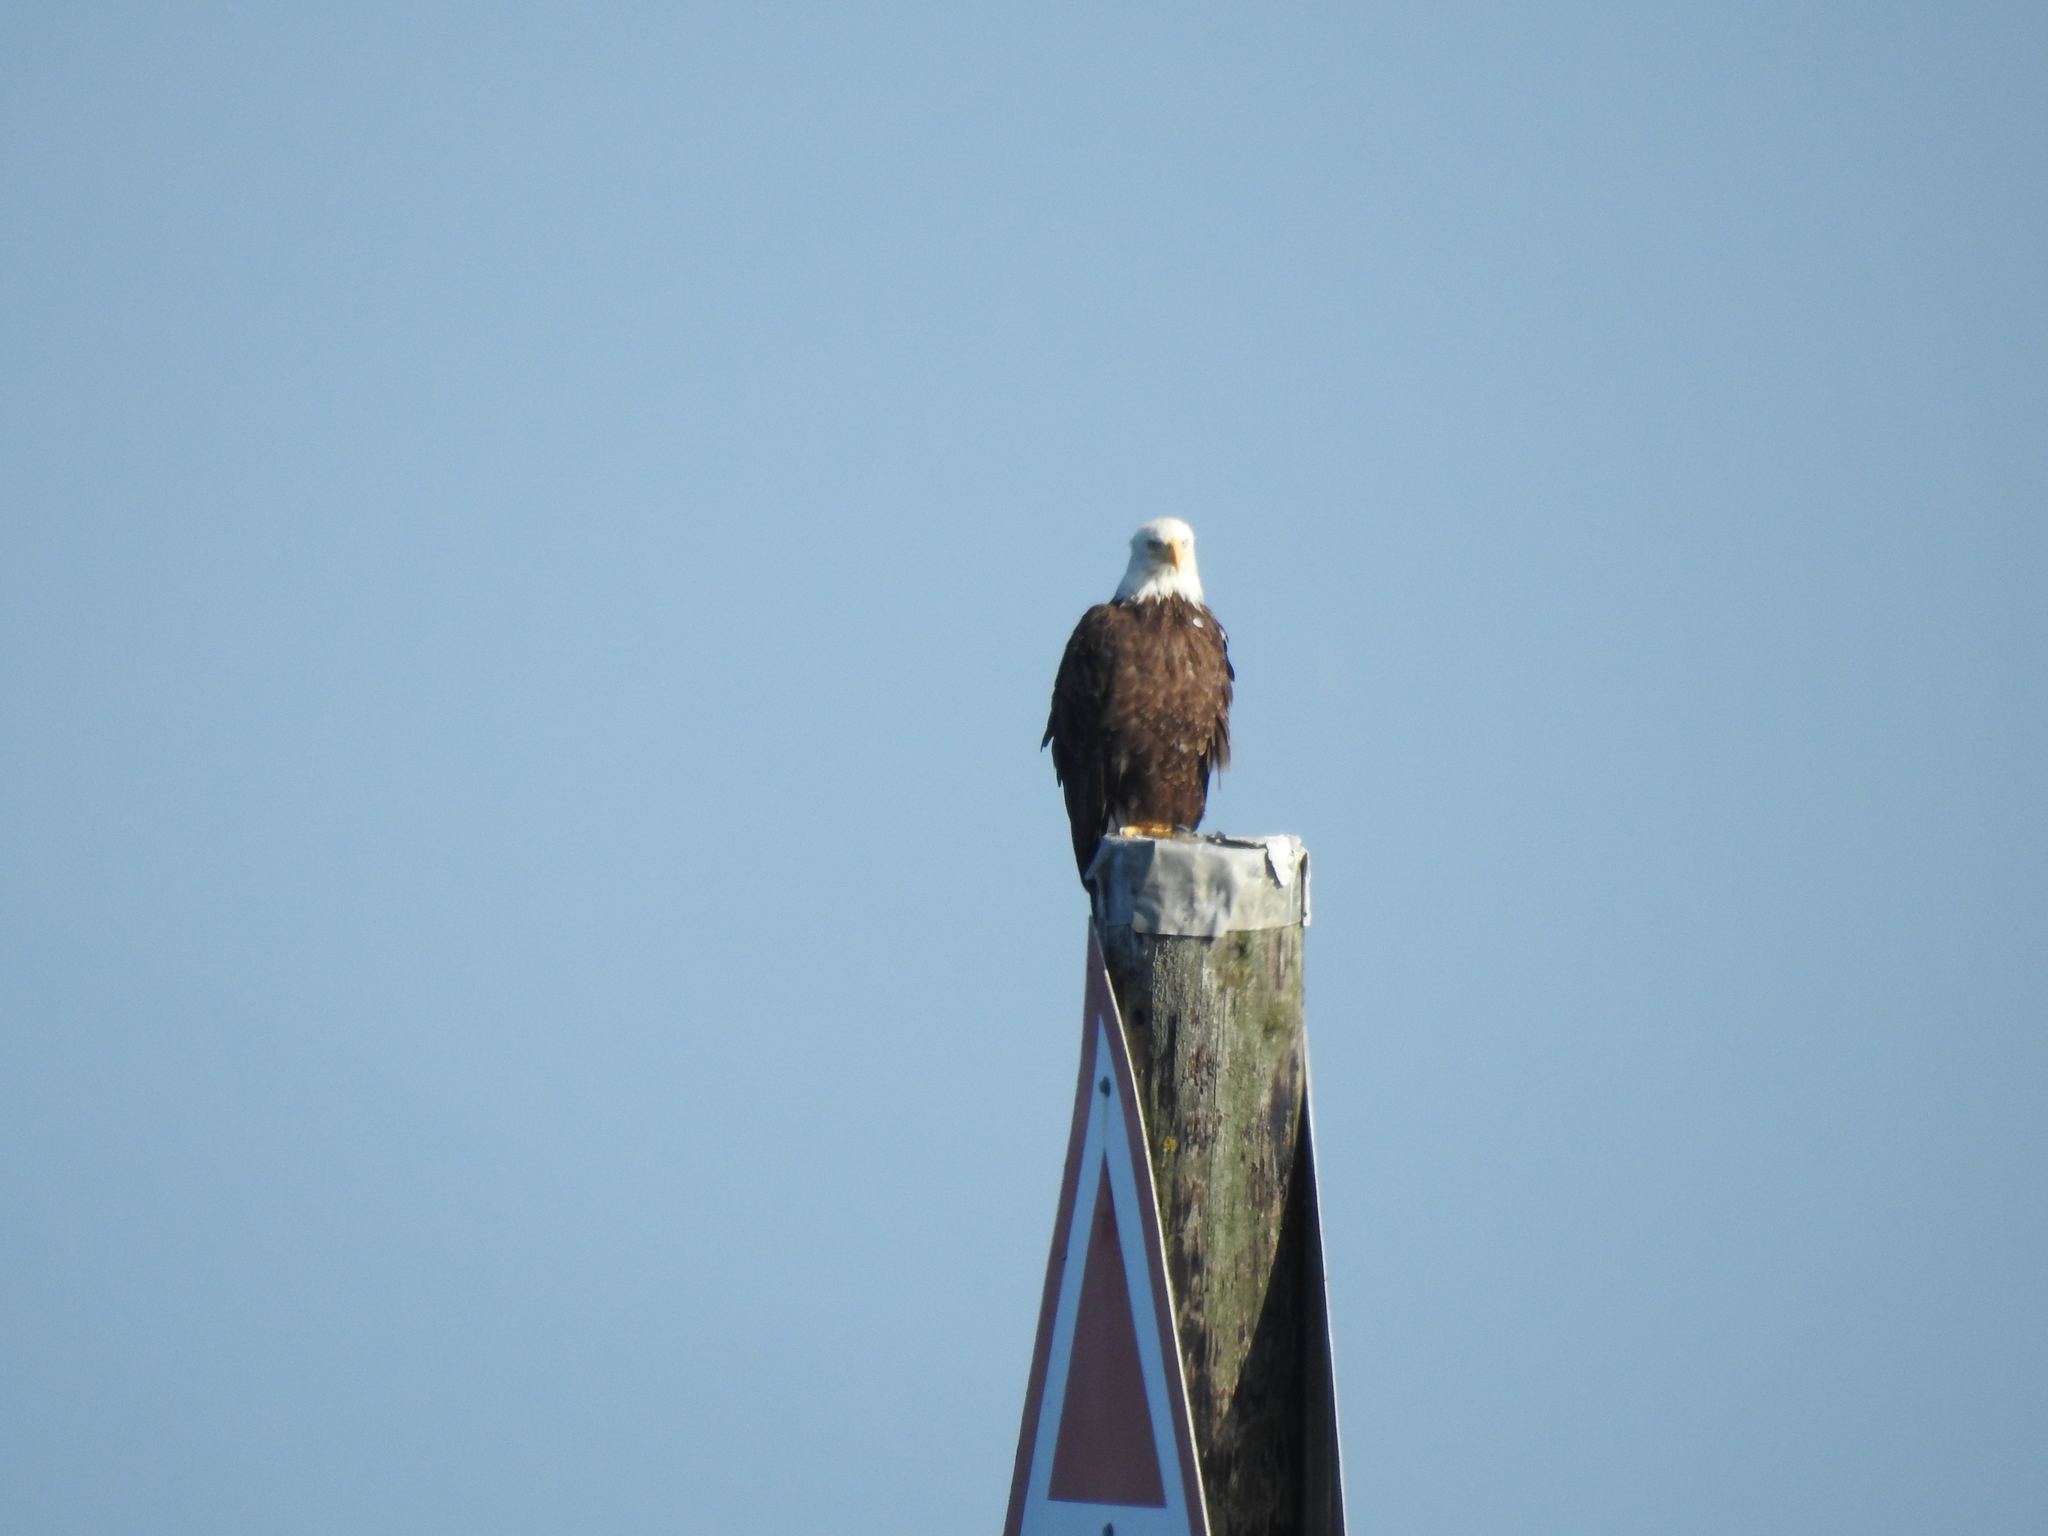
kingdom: Animalia
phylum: Chordata
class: Aves
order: Accipitriformes
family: Accipitridae
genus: Haliaeetus
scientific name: Haliaeetus leucocephalus
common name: Bald eagle
